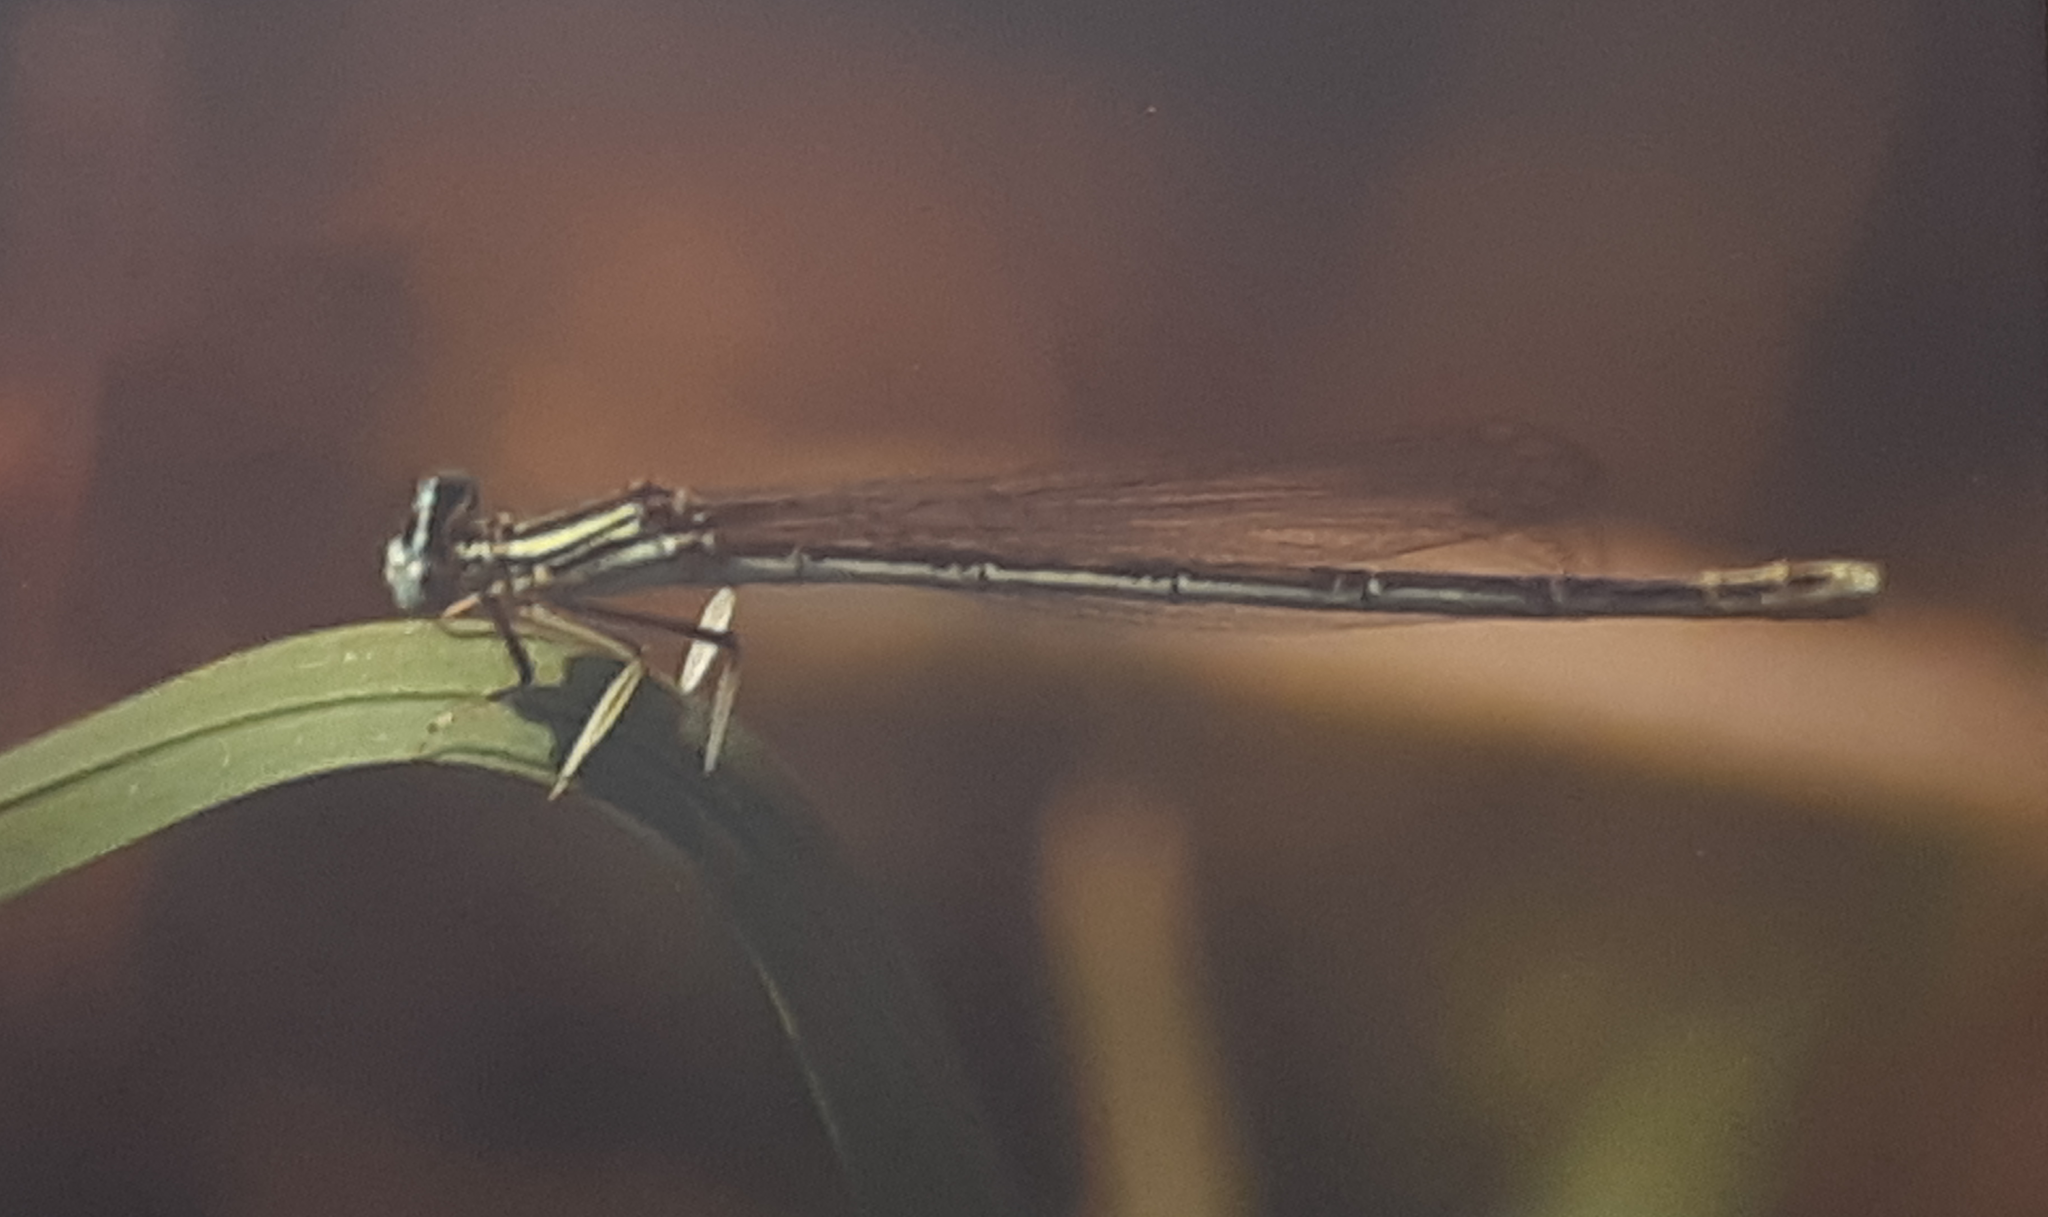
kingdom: Animalia
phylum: Arthropoda
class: Insecta
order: Odonata
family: Platycnemididae
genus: Platycnemis
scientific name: Platycnemis pennipes
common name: White-legged damselfly
